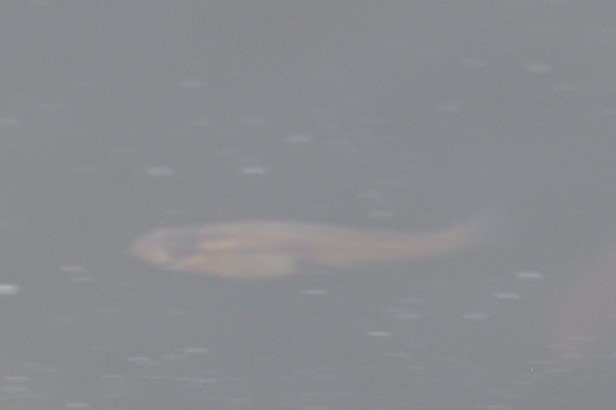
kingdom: Animalia
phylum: Chordata
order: Cyprinodontiformes
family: Poeciliidae
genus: Gambusia
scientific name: Gambusia affinis
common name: Mosquitofish
